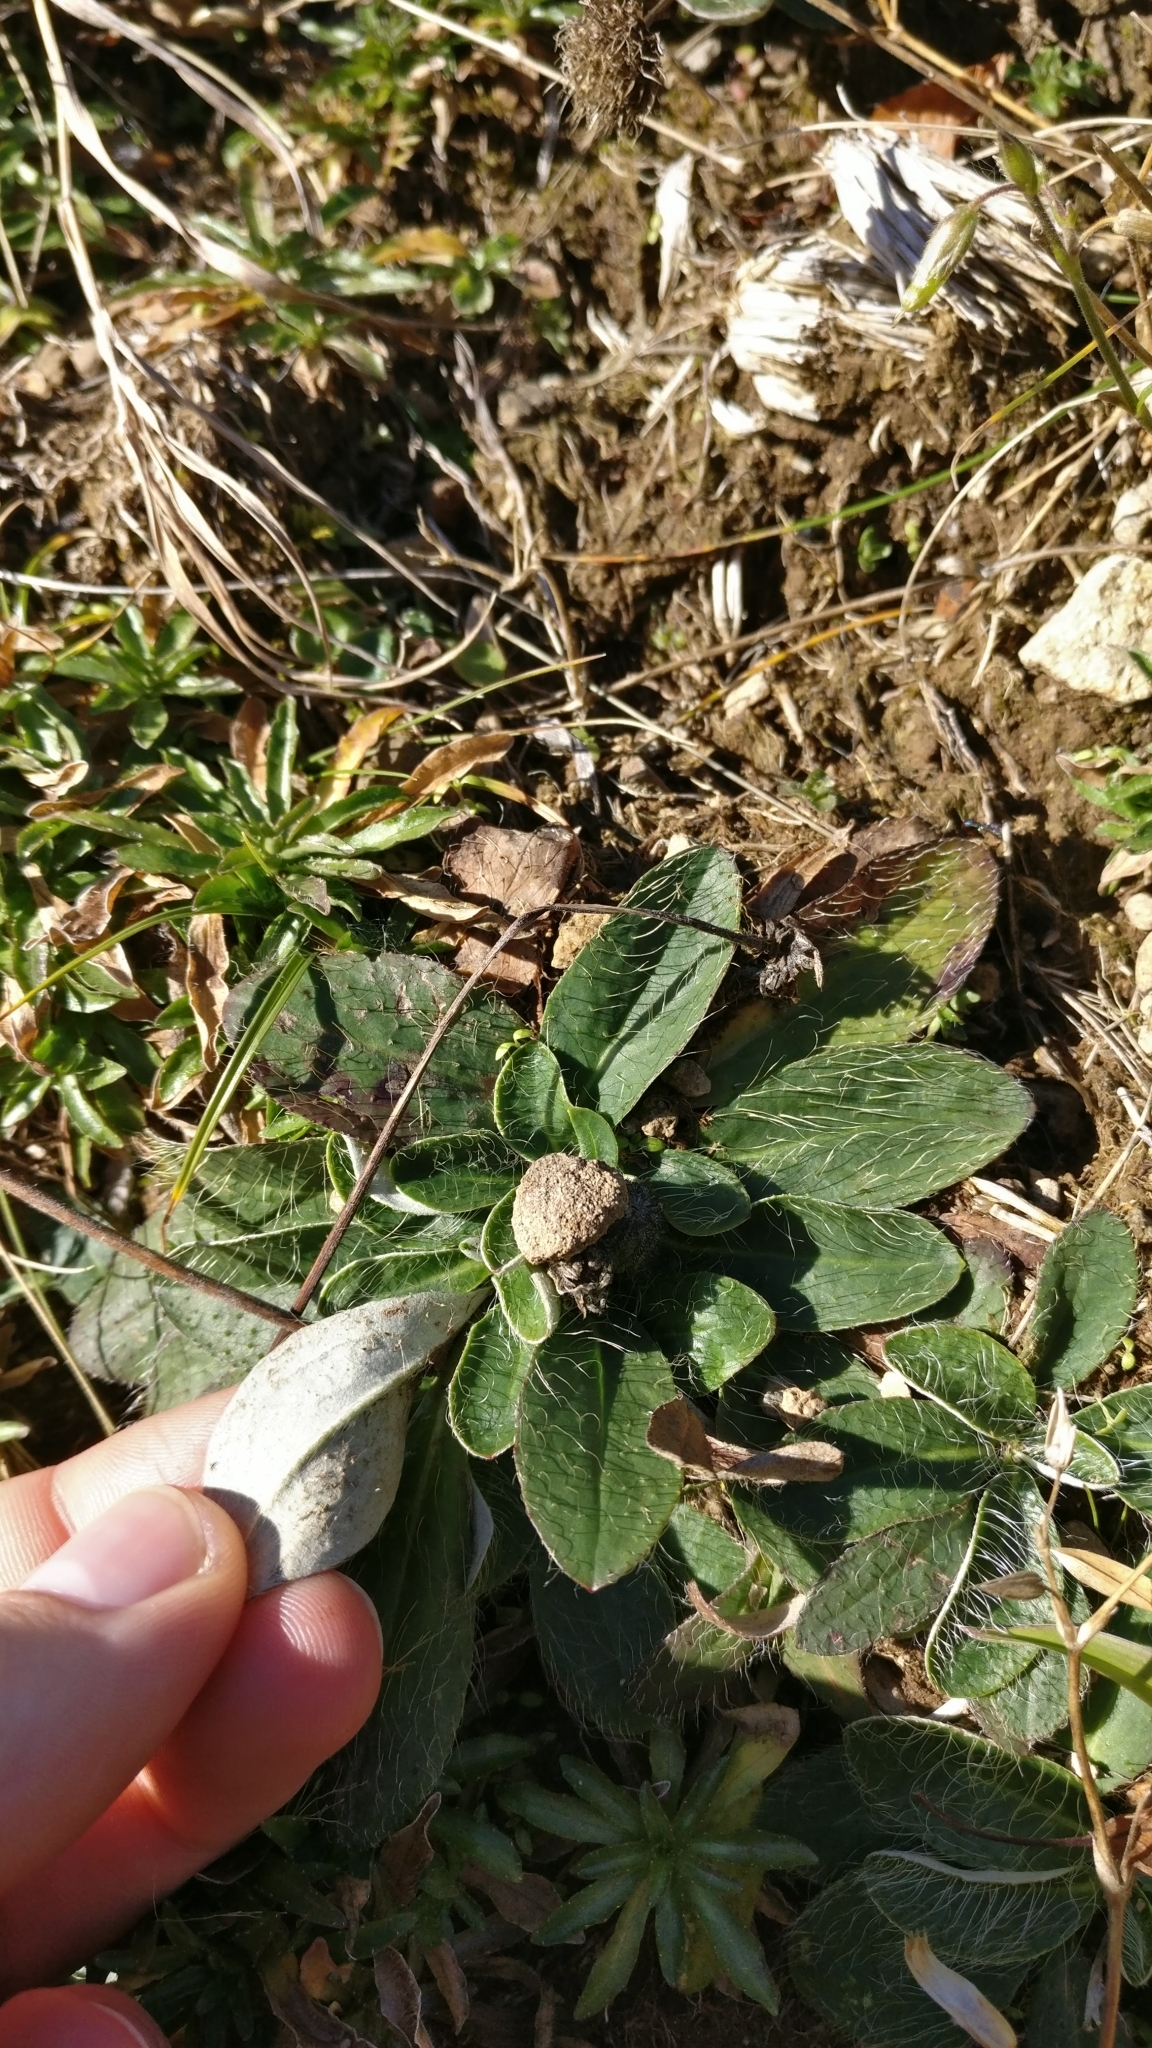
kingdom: Plantae
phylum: Tracheophyta
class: Magnoliopsida
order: Asterales
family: Asteraceae
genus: Pilosella
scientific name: Pilosella officinarum
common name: Mouse-ear hawkweed
